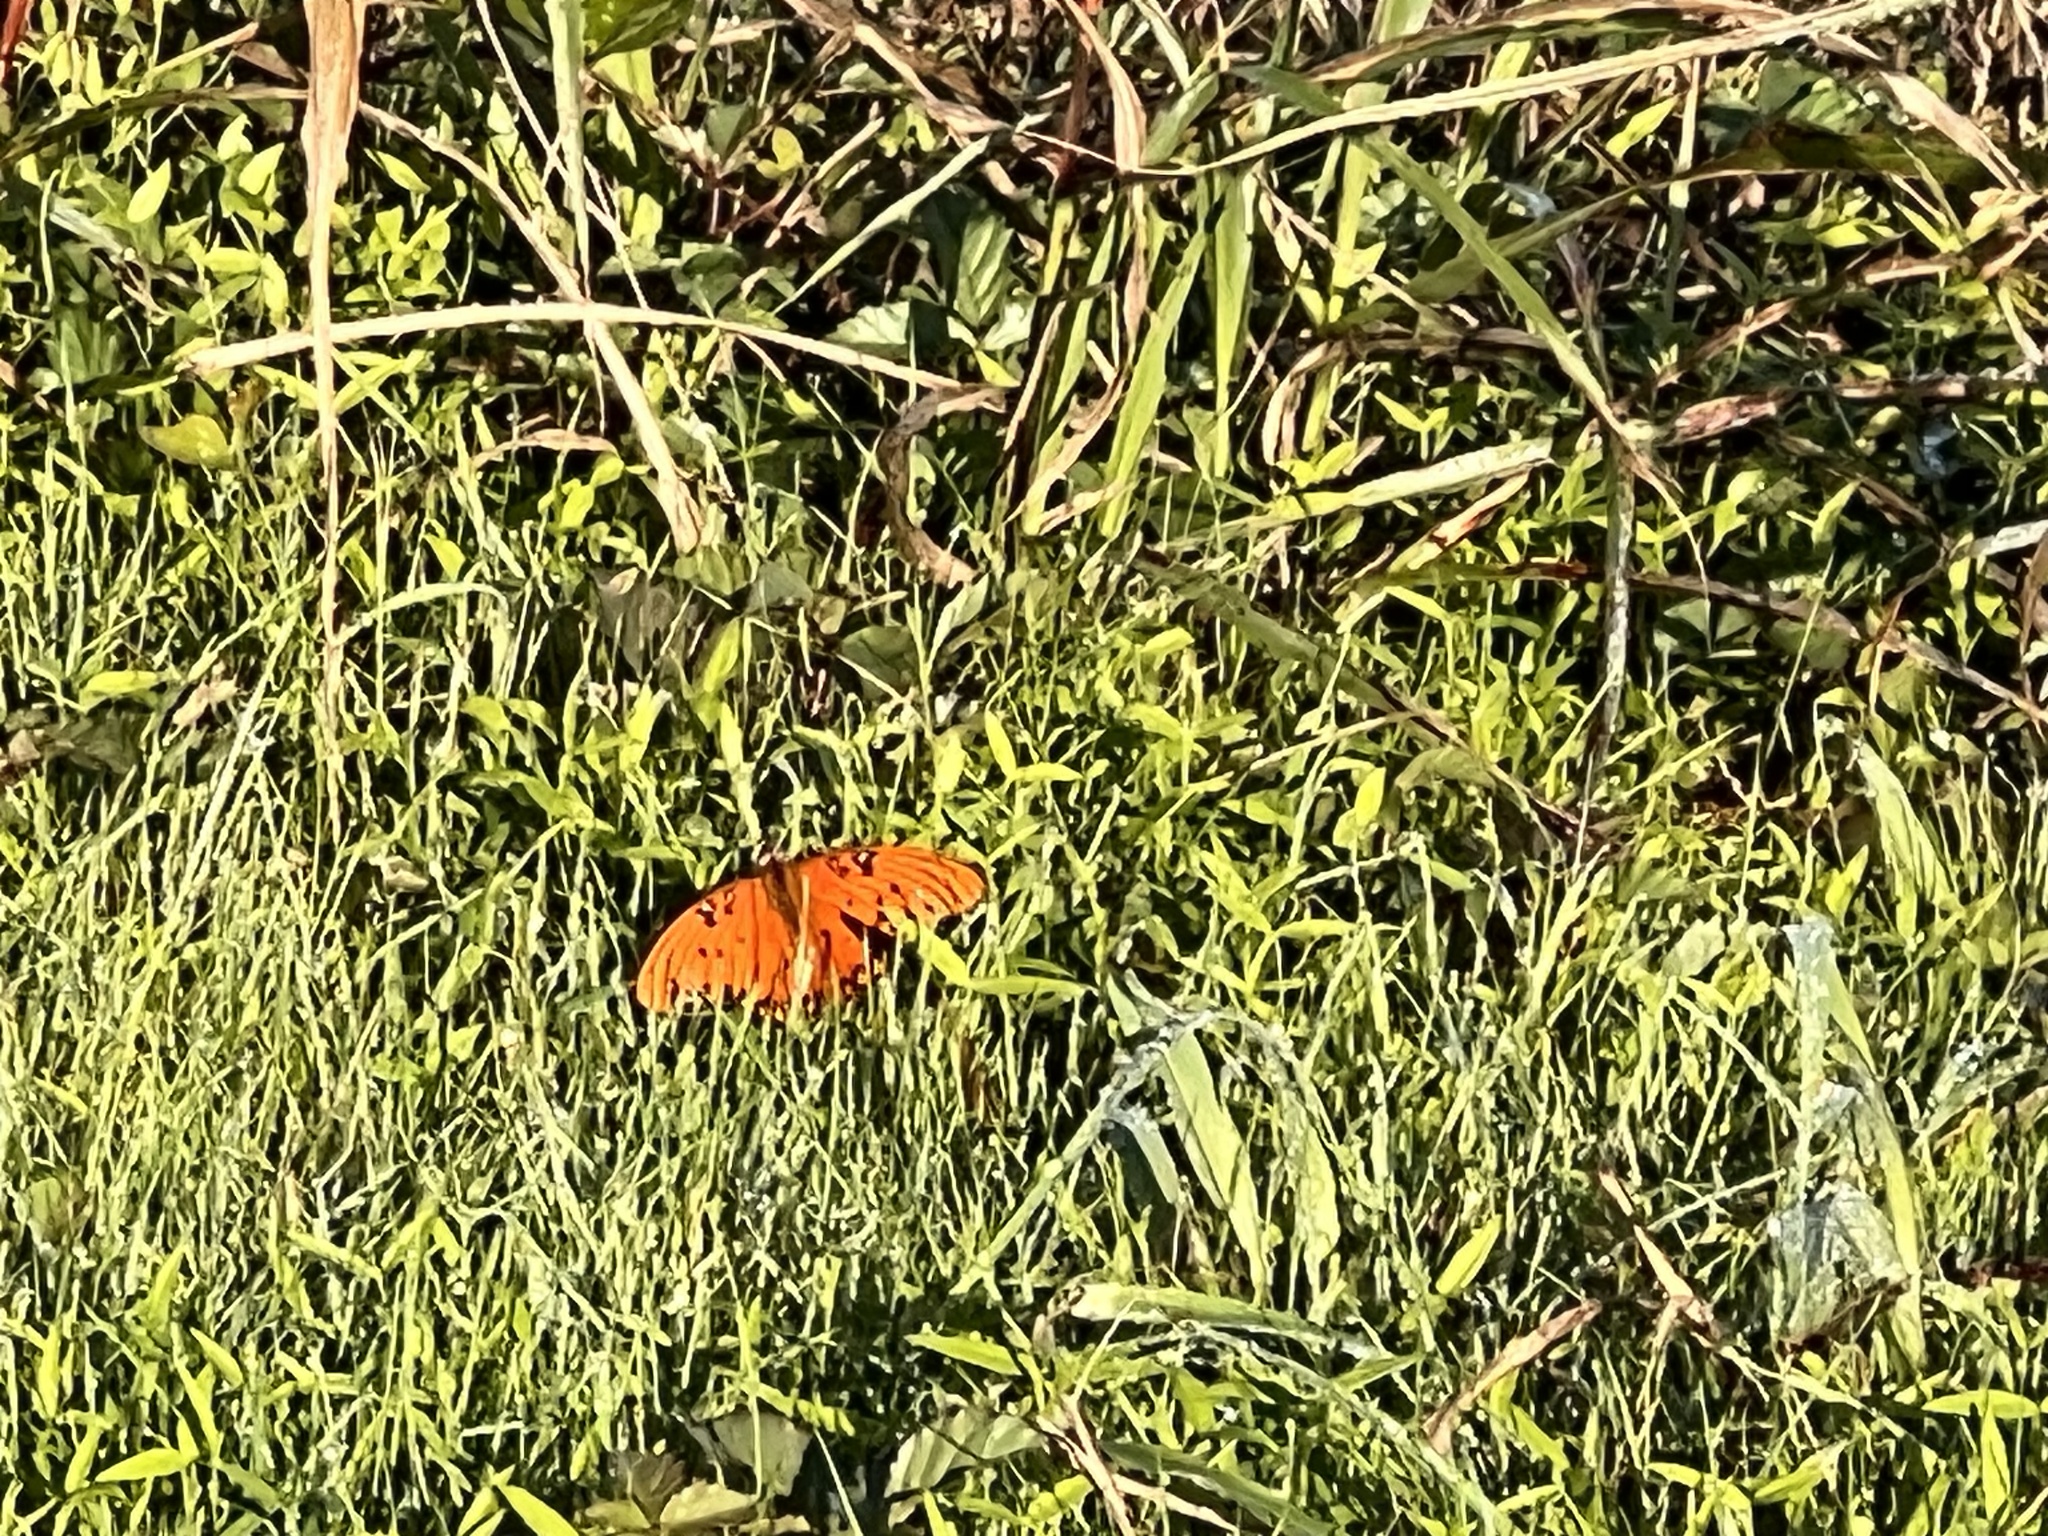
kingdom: Animalia
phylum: Arthropoda
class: Insecta
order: Lepidoptera
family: Nymphalidae
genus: Dione
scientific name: Dione vanillae
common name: Gulf fritillary
